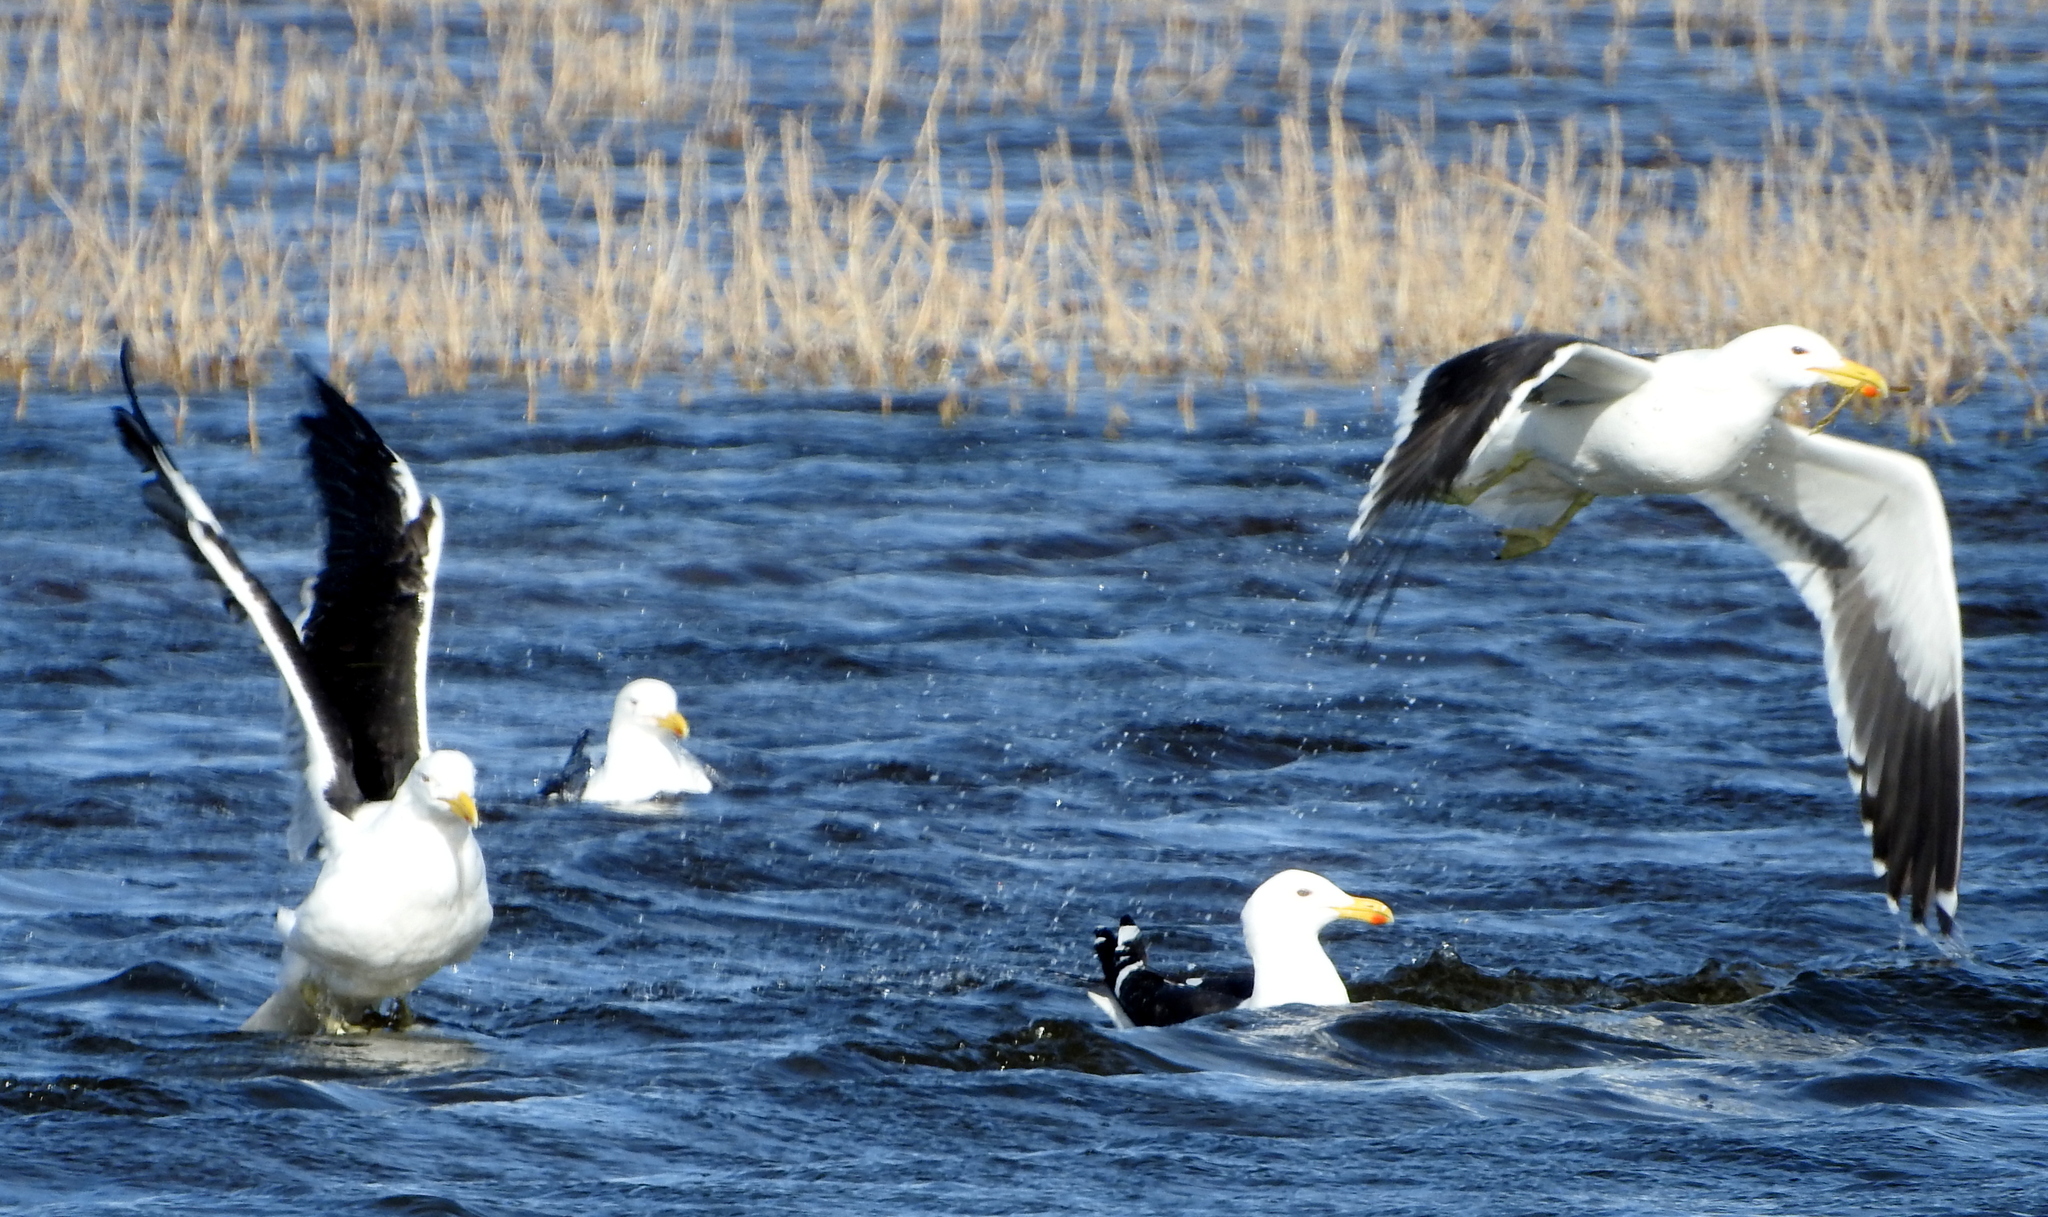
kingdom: Animalia
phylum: Chordata
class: Aves
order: Charadriiformes
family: Laridae
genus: Larus
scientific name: Larus dominicanus
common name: Kelp gull
